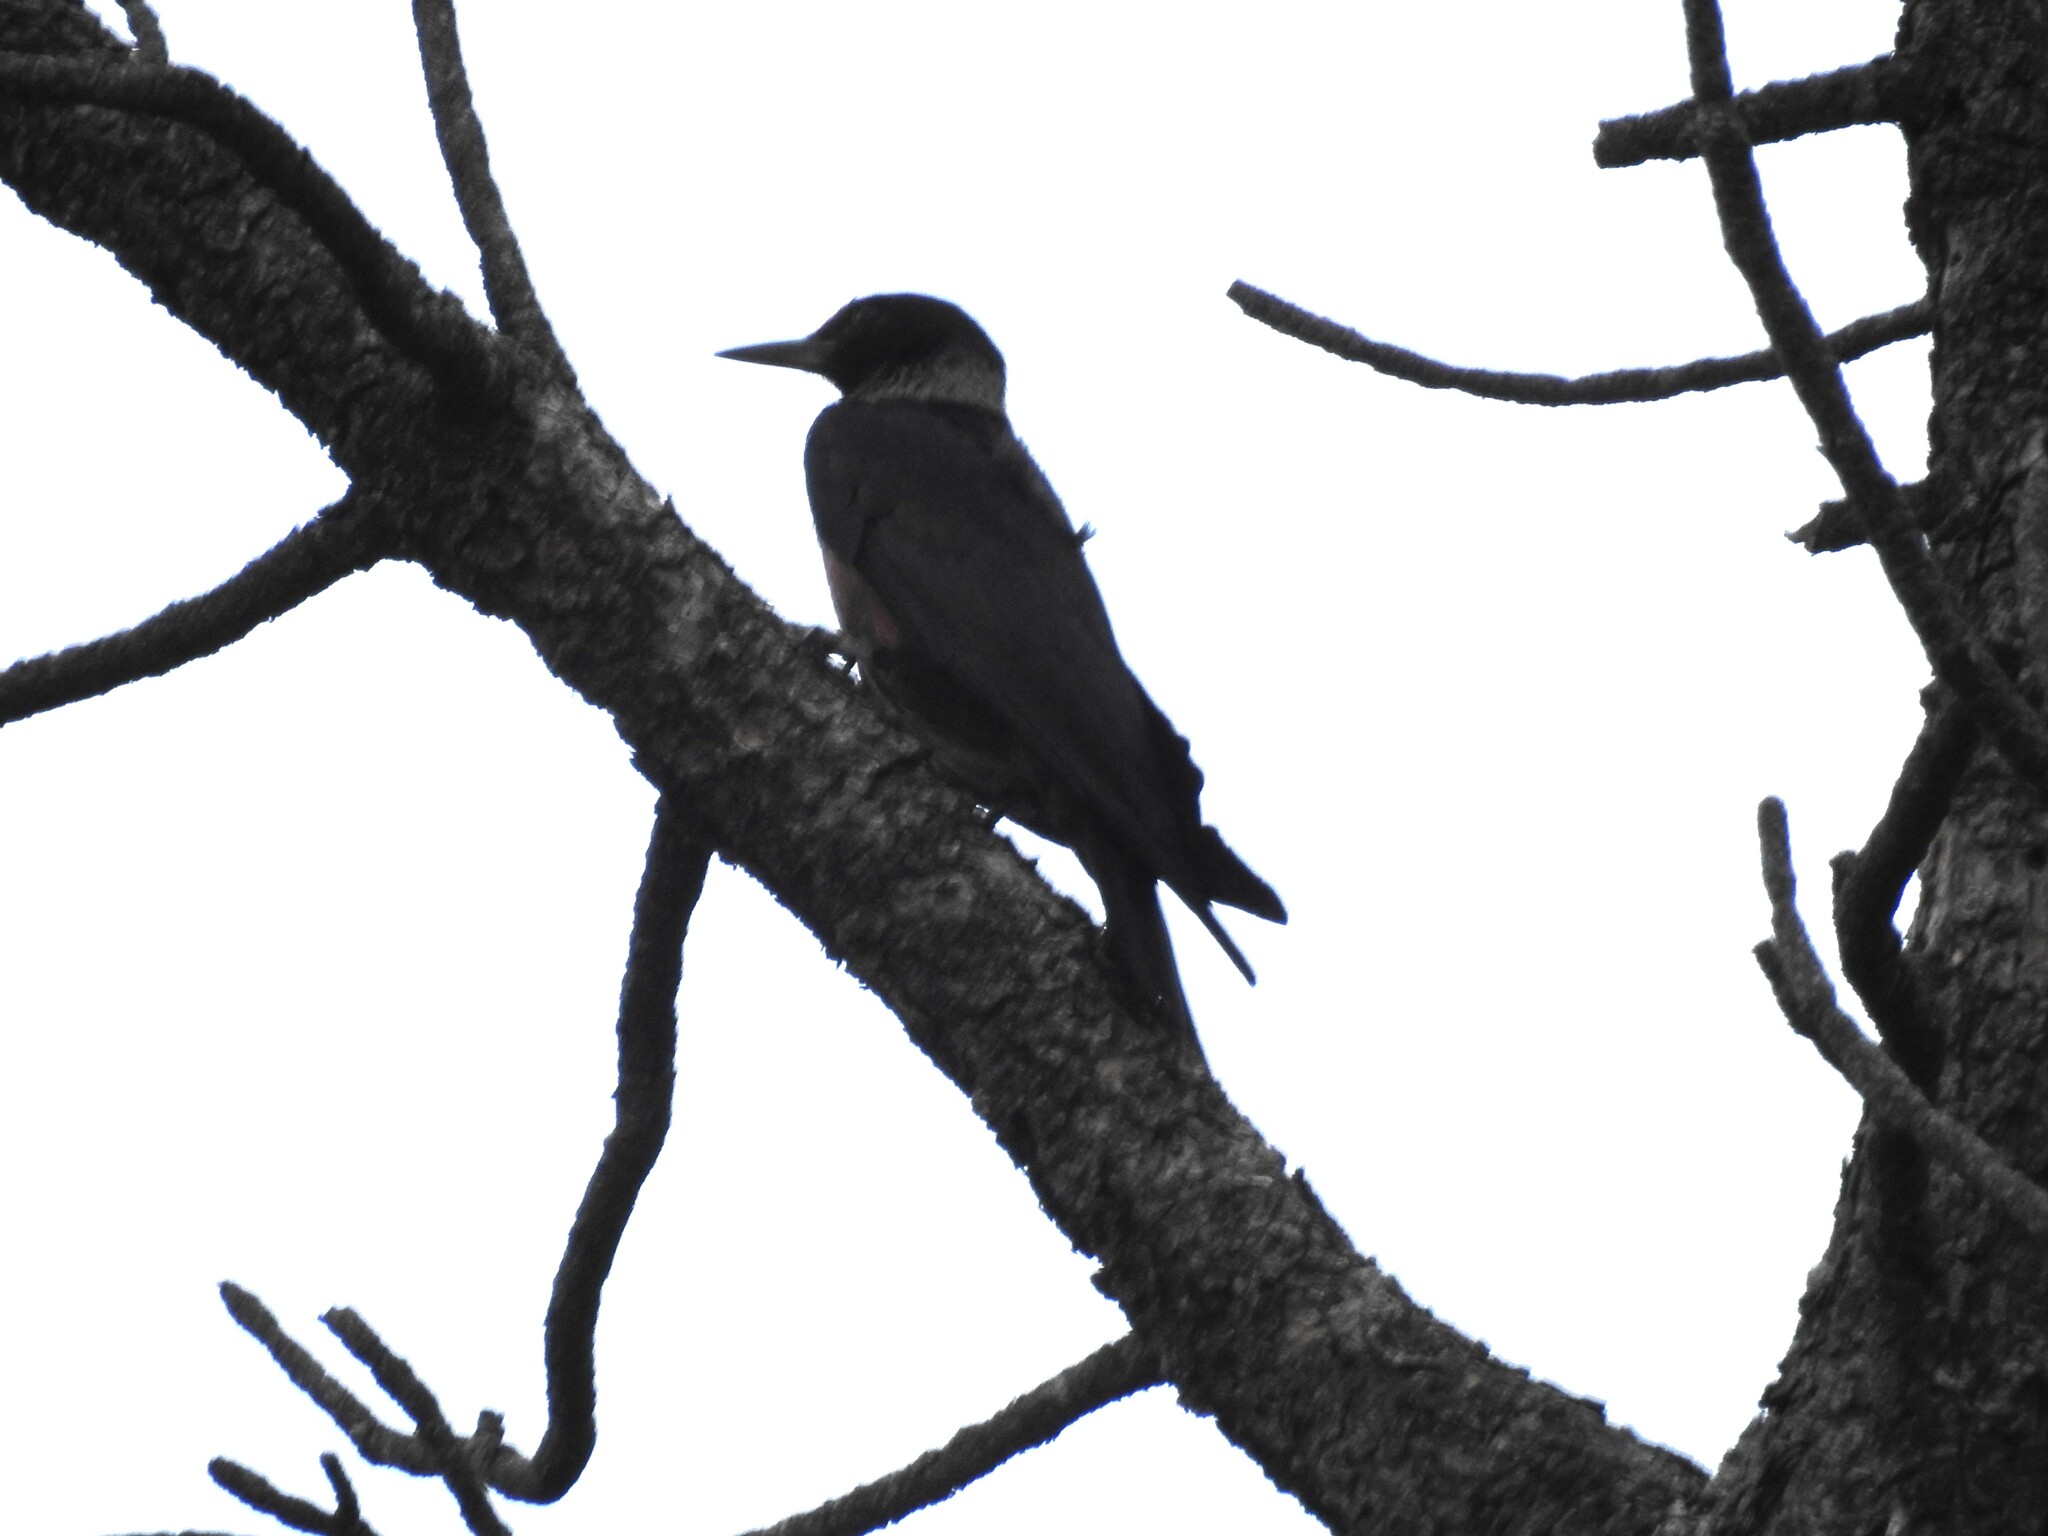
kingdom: Animalia
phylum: Chordata
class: Aves
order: Piciformes
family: Picidae
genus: Melanerpes
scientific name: Melanerpes lewis
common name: Lewis's woodpecker
